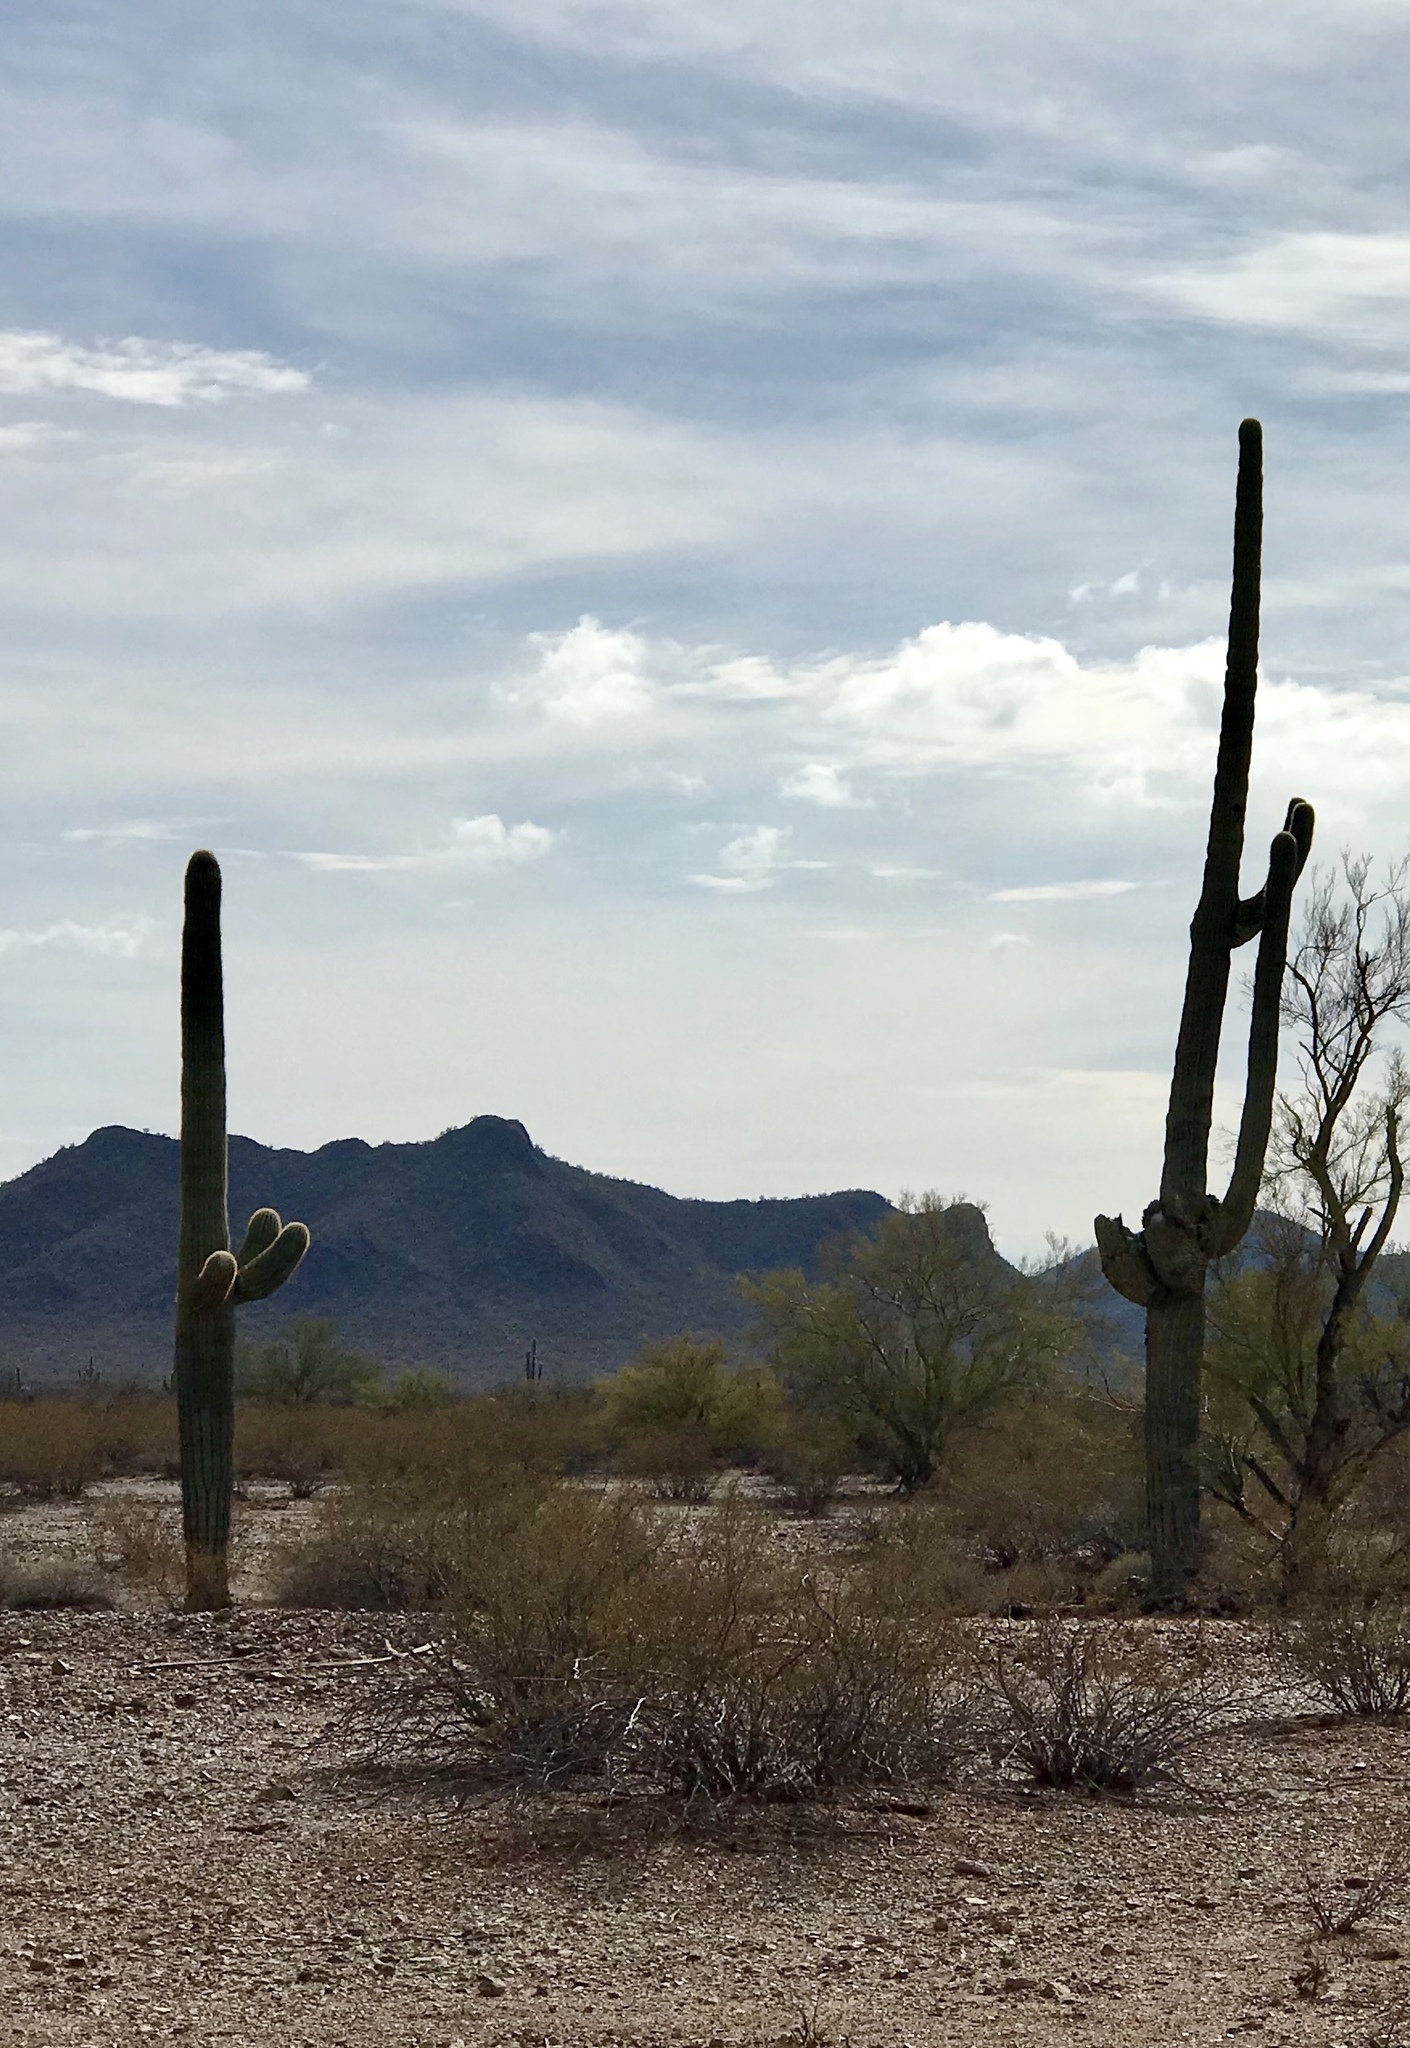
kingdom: Plantae
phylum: Tracheophyta
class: Magnoliopsida
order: Caryophyllales
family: Cactaceae
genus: Carnegiea
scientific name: Carnegiea gigantea
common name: Saguaro
